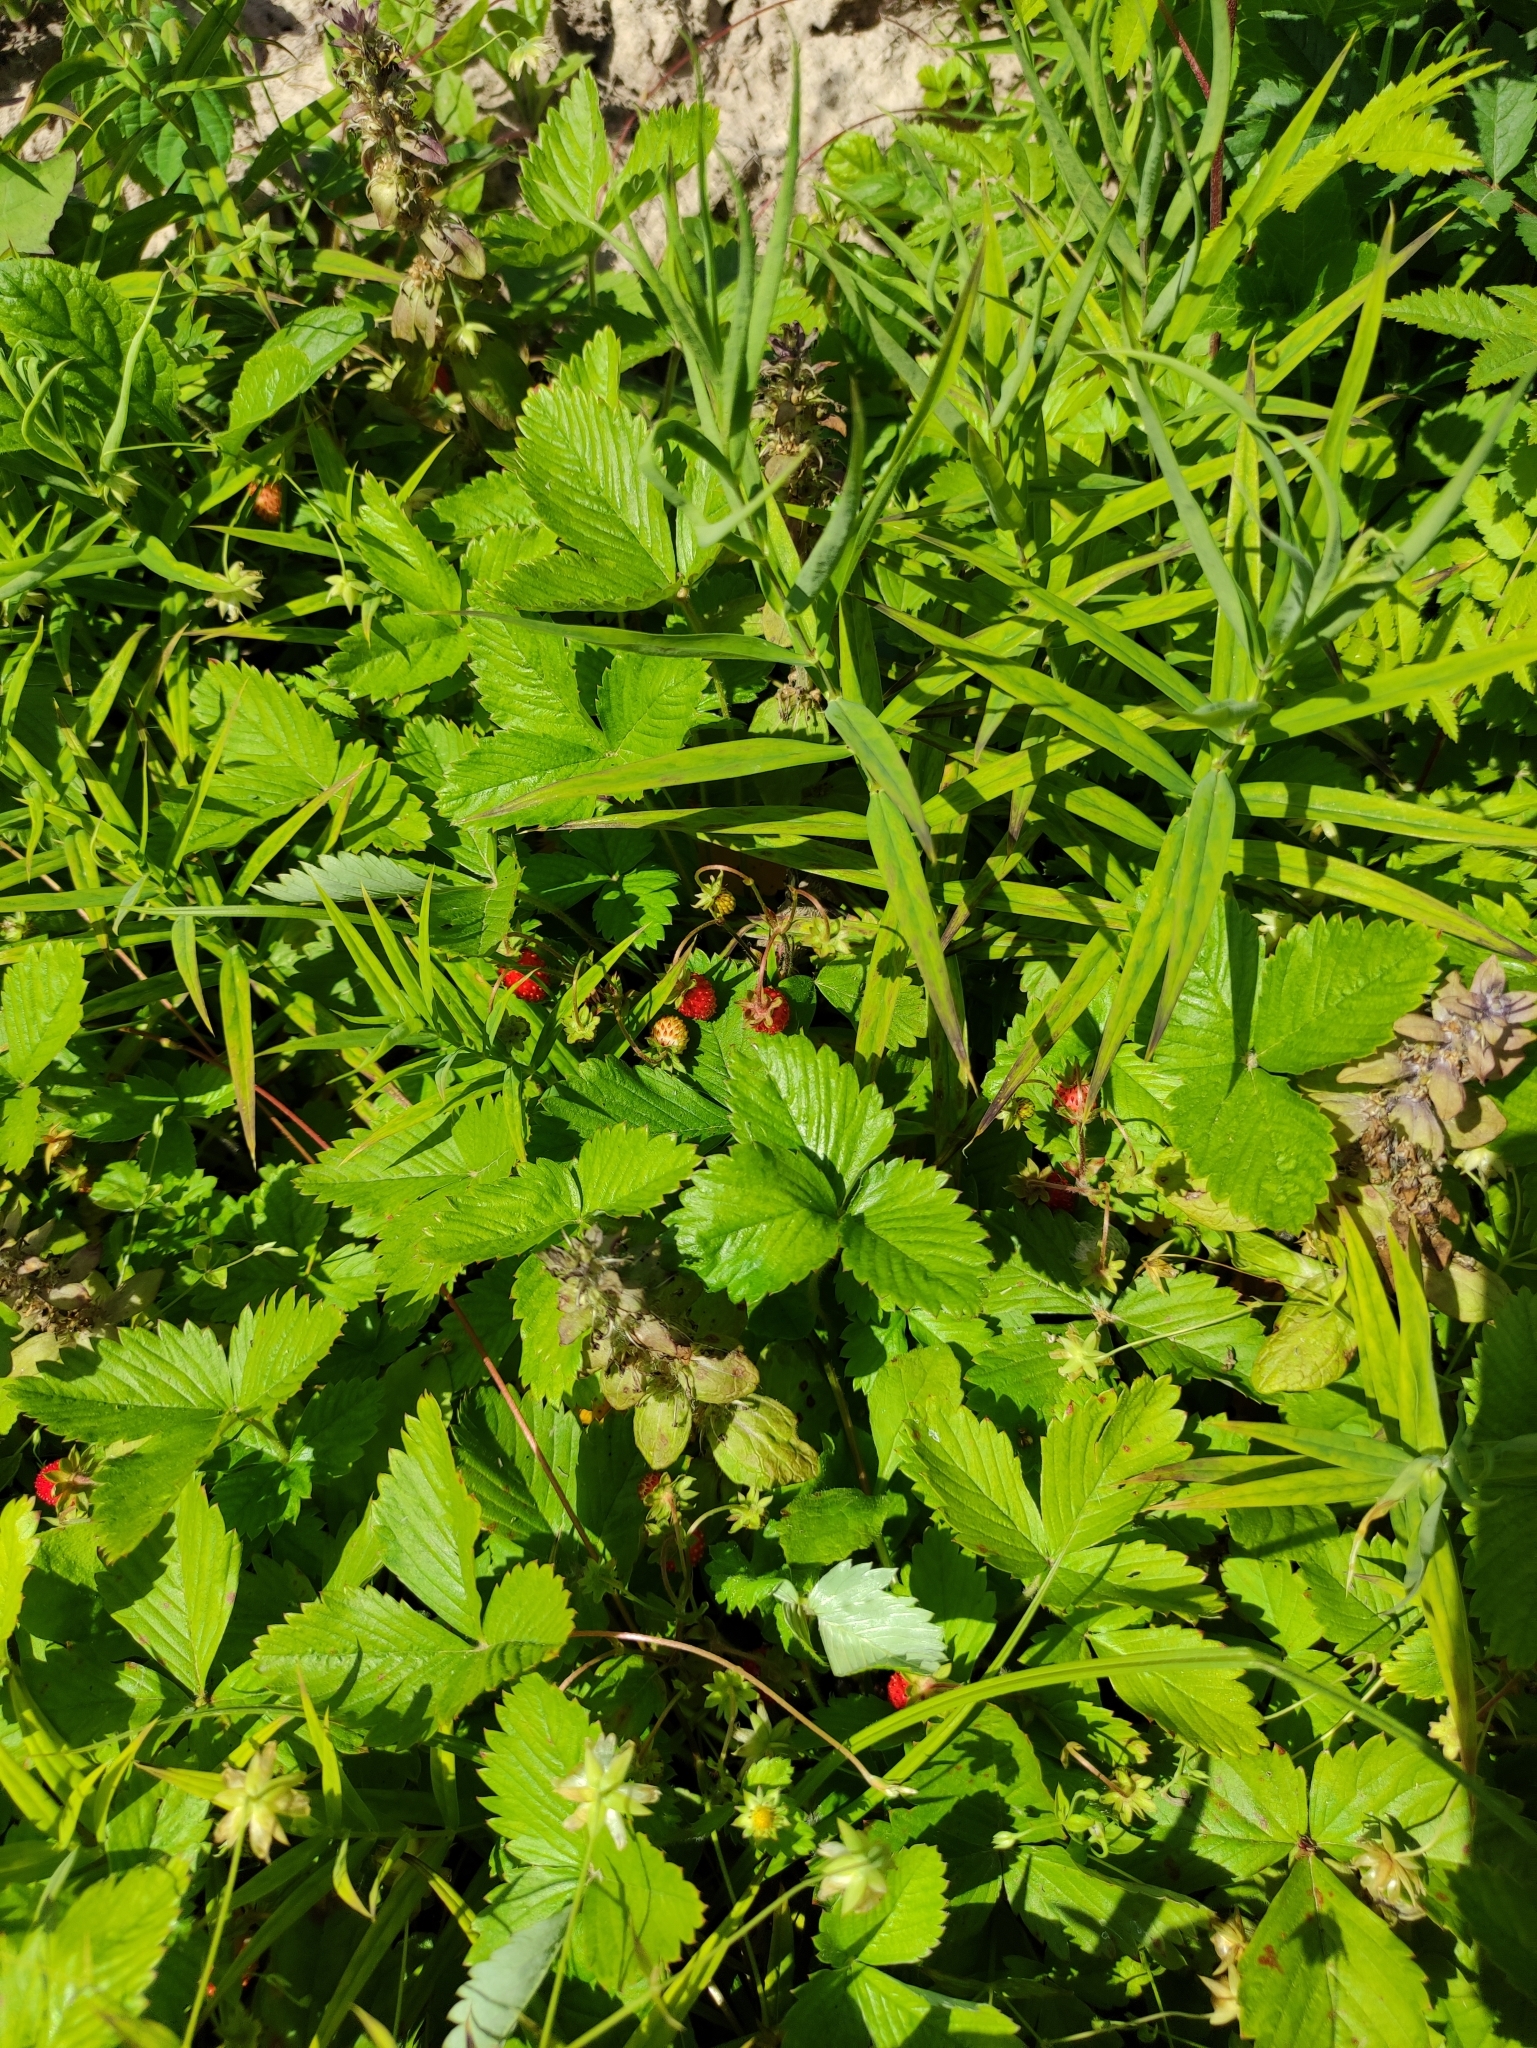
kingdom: Plantae
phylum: Tracheophyta
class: Magnoliopsida
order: Rosales
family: Rosaceae
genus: Fragaria
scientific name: Fragaria vesca
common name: Wild strawberry
